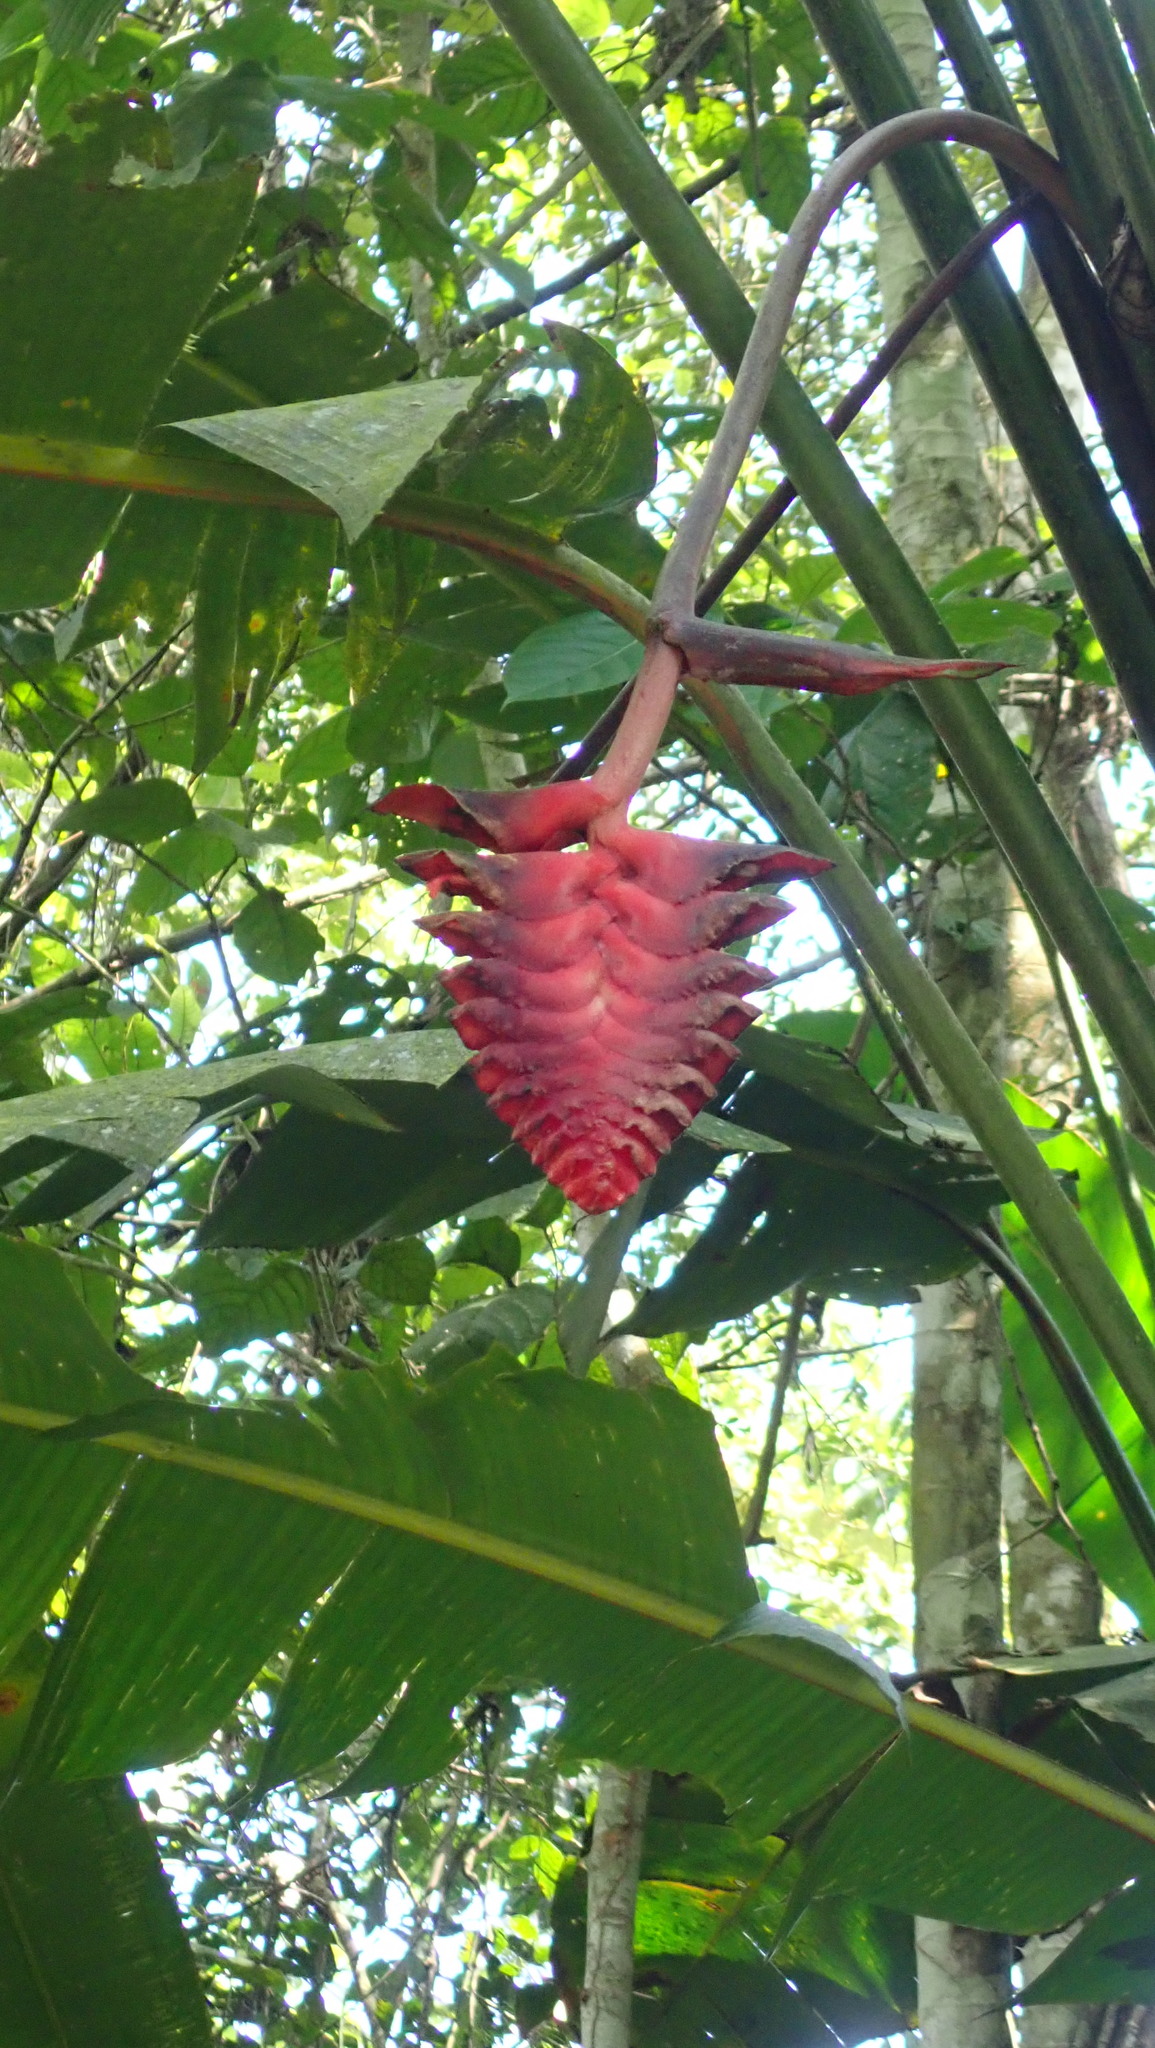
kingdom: Plantae
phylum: Tracheophyta
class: Liliopsida
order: Zingiberales
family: Heliconiaceae
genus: Heliconia
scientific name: Heliconia mariae
